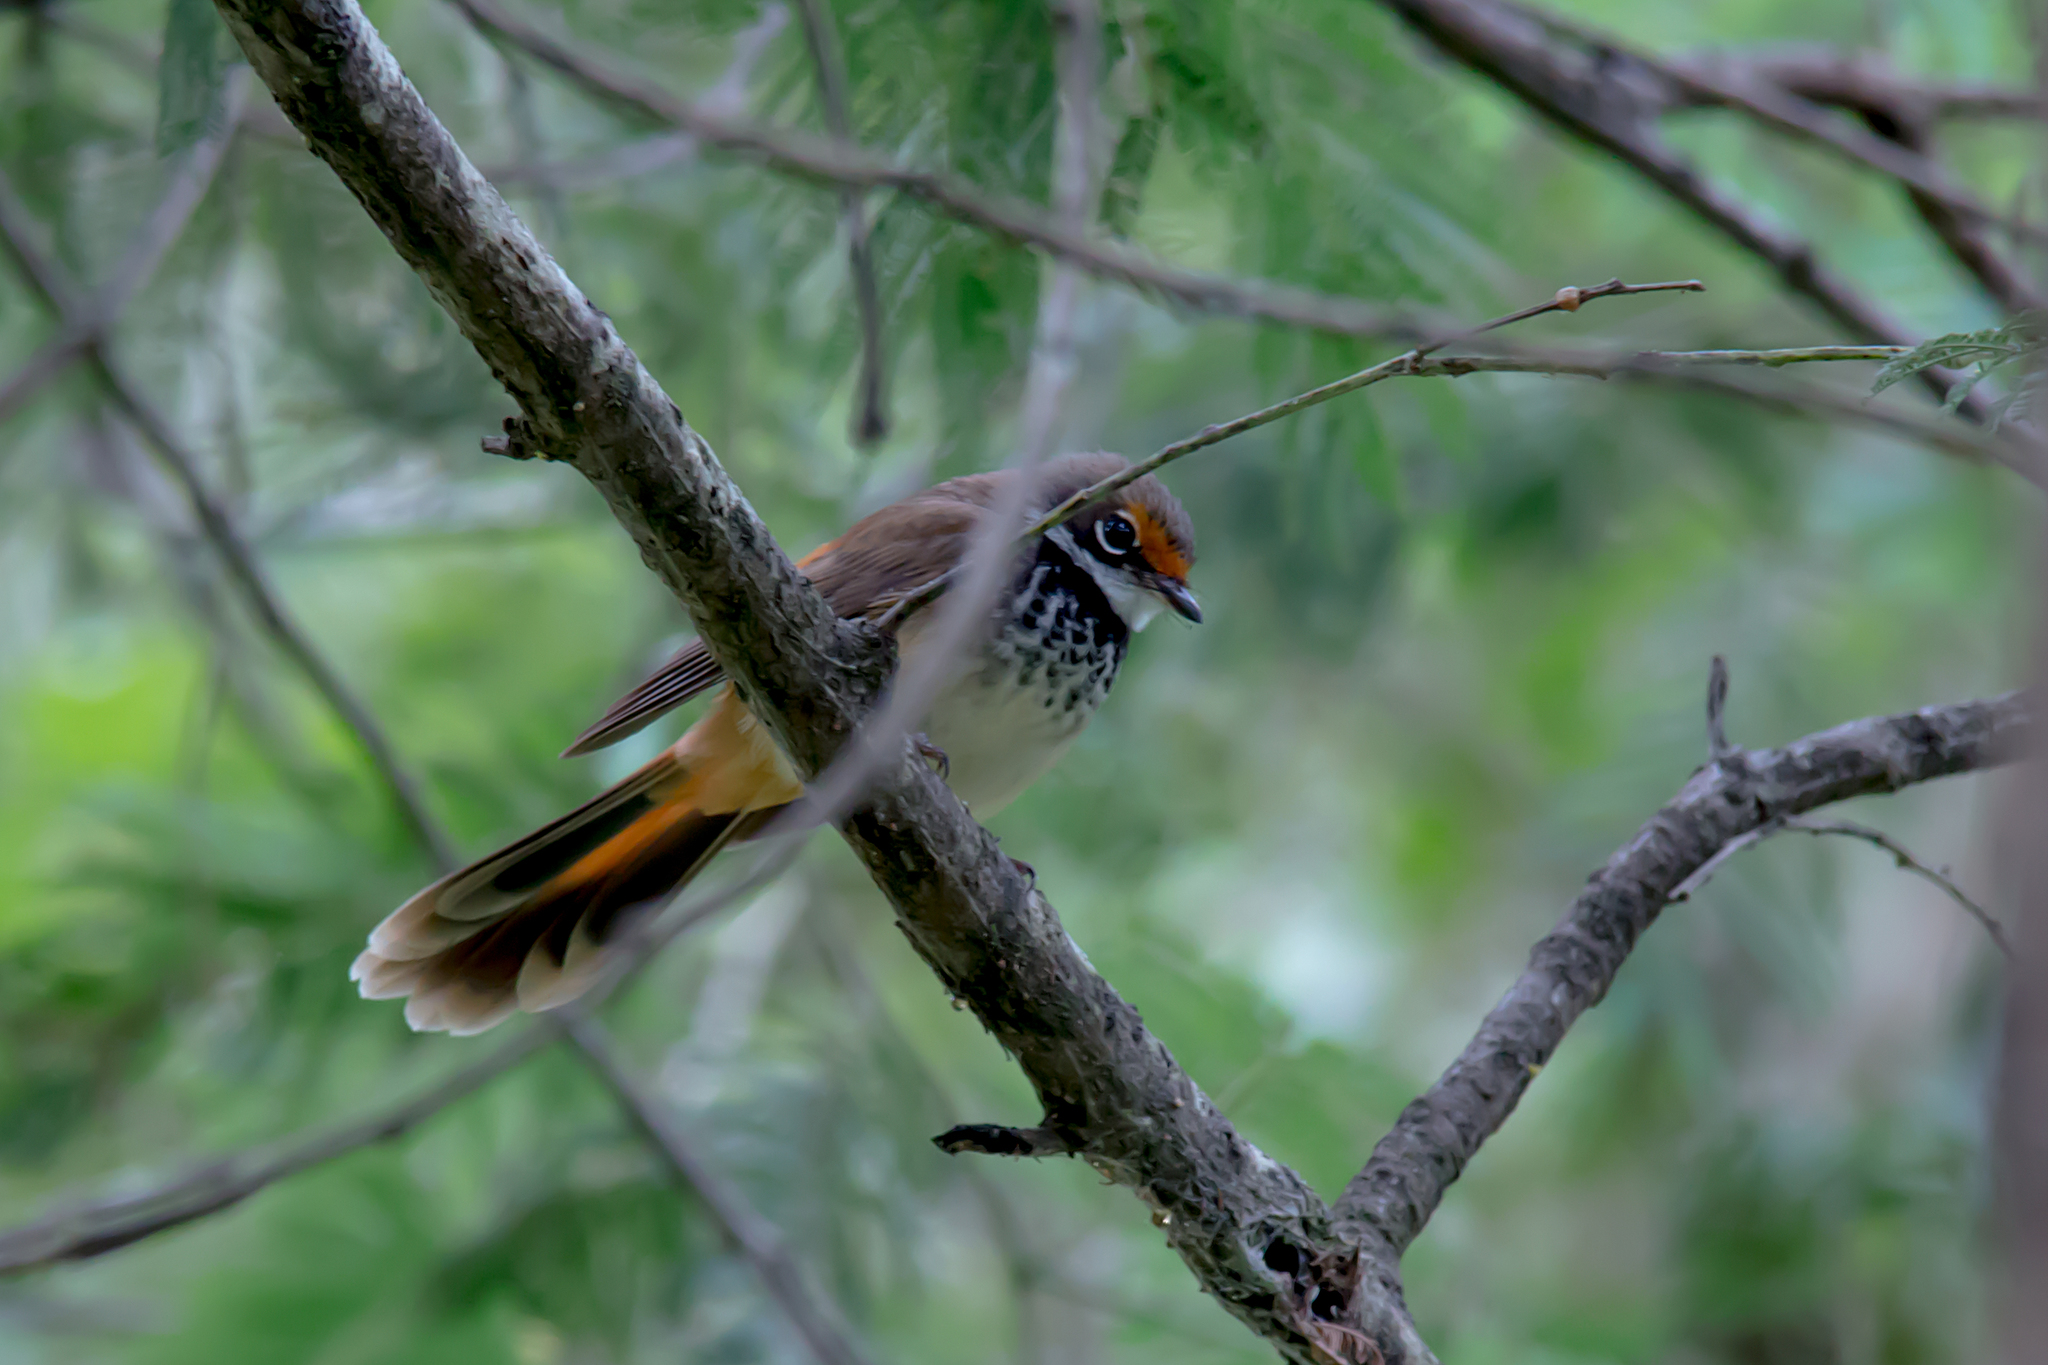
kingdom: Animalia
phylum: Chordata
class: Aves
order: Passeriformes
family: Rhipiduridae
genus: Rhipidura
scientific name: Rhipidura rufifrons
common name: Rufous fantail
